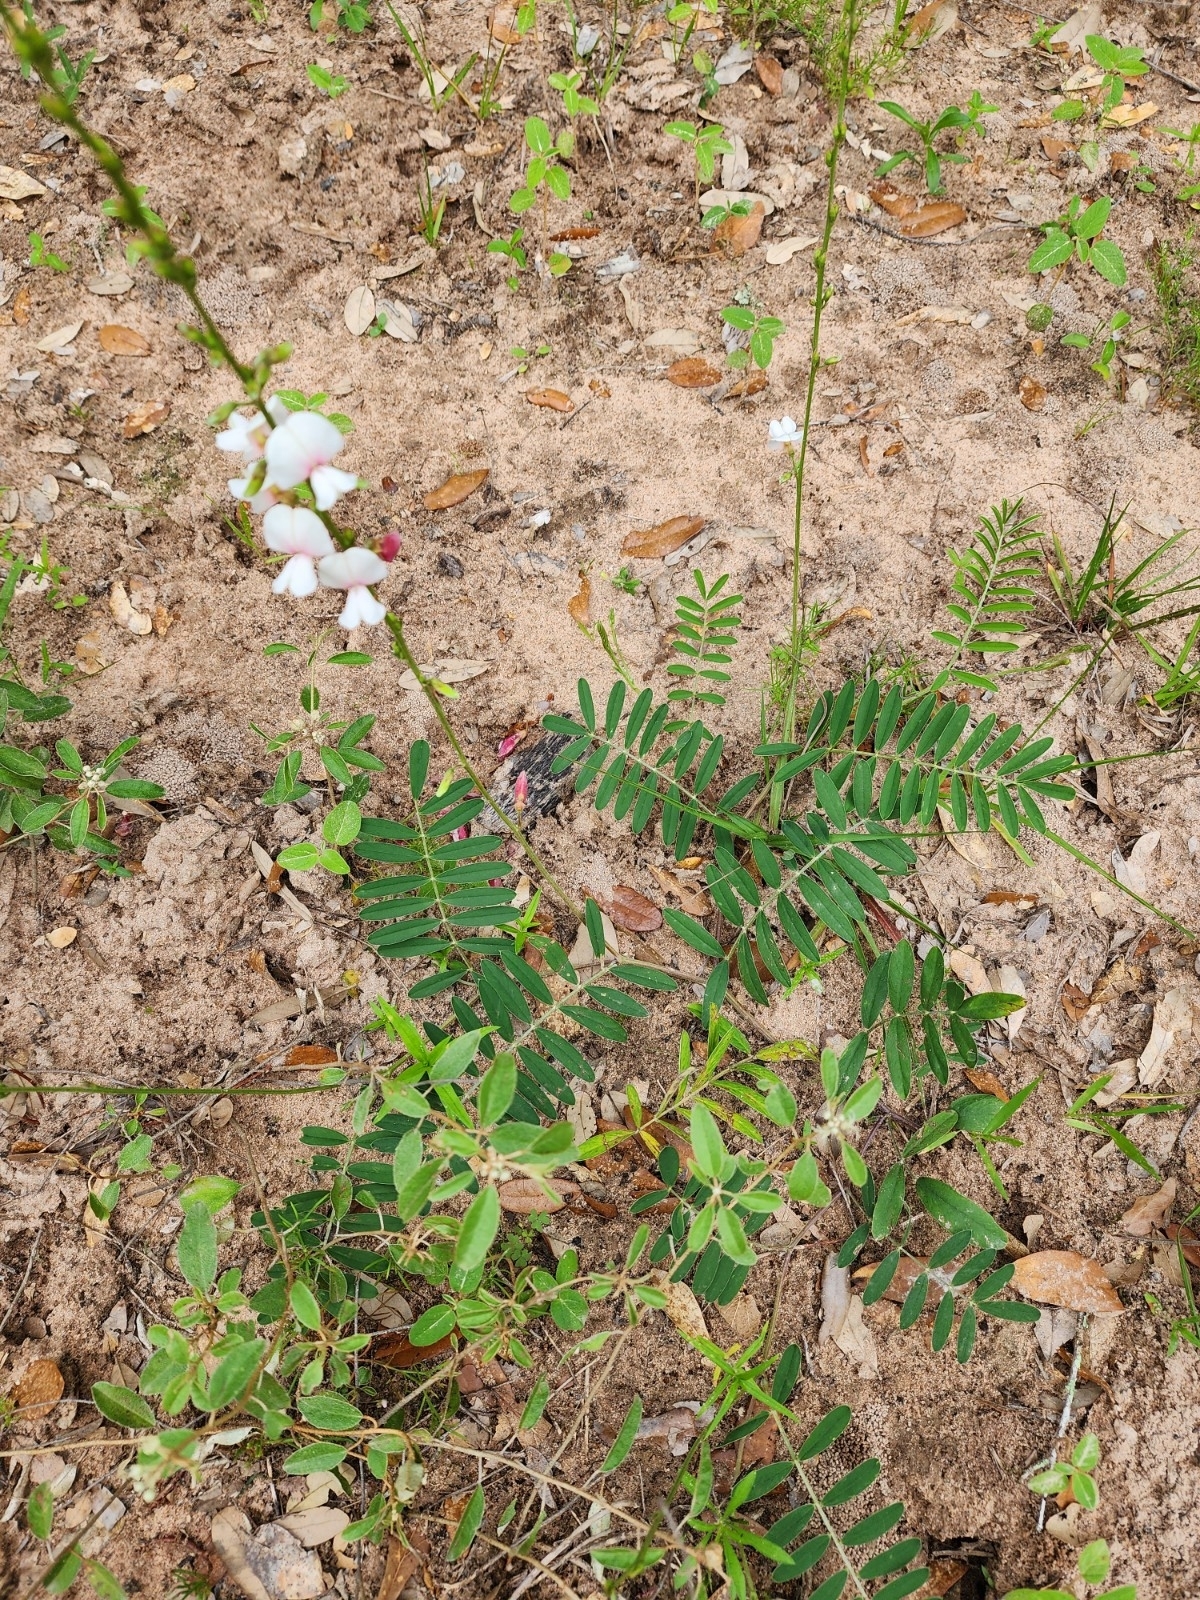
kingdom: Plantae
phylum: Tracheophyta
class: Magnoliopsida
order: Fabales
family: Fabaceae
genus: Tephrosia
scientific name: Tephrosia onobrychoides
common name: Multi-bloom hoary-pea
